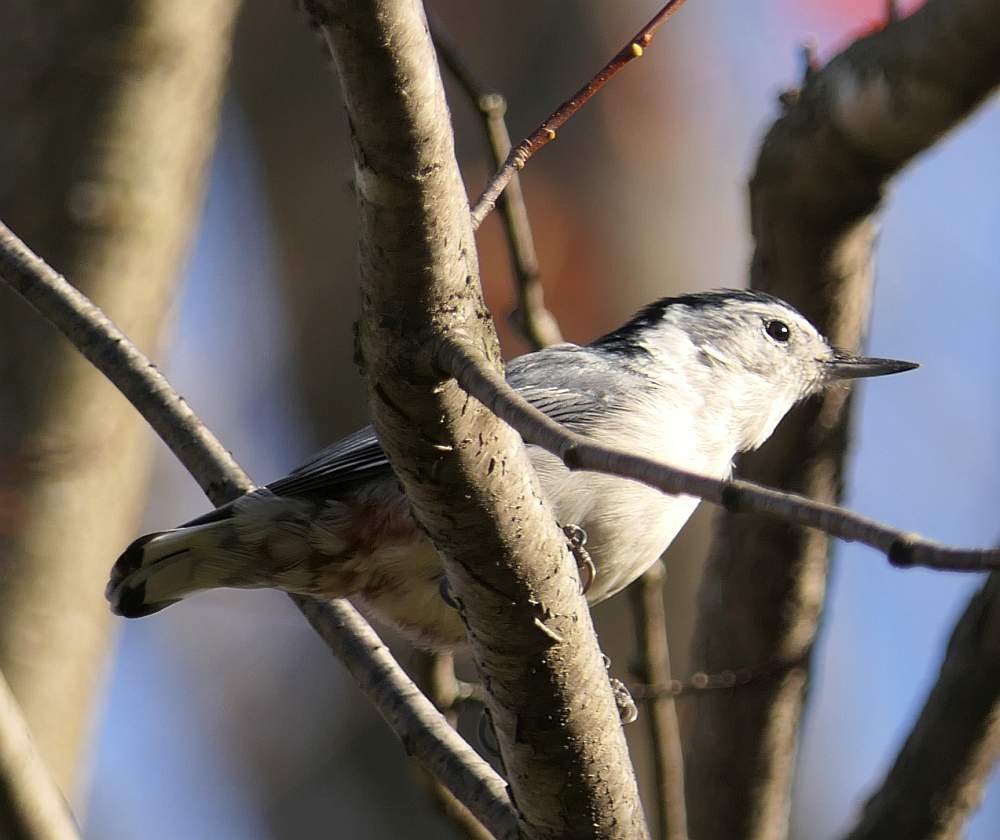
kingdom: Animalia
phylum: Chordata
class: Aves
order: Passeriformes
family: Sittidae
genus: Sitta
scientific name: Sitta carolinensis
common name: White-breasted nuthatch
